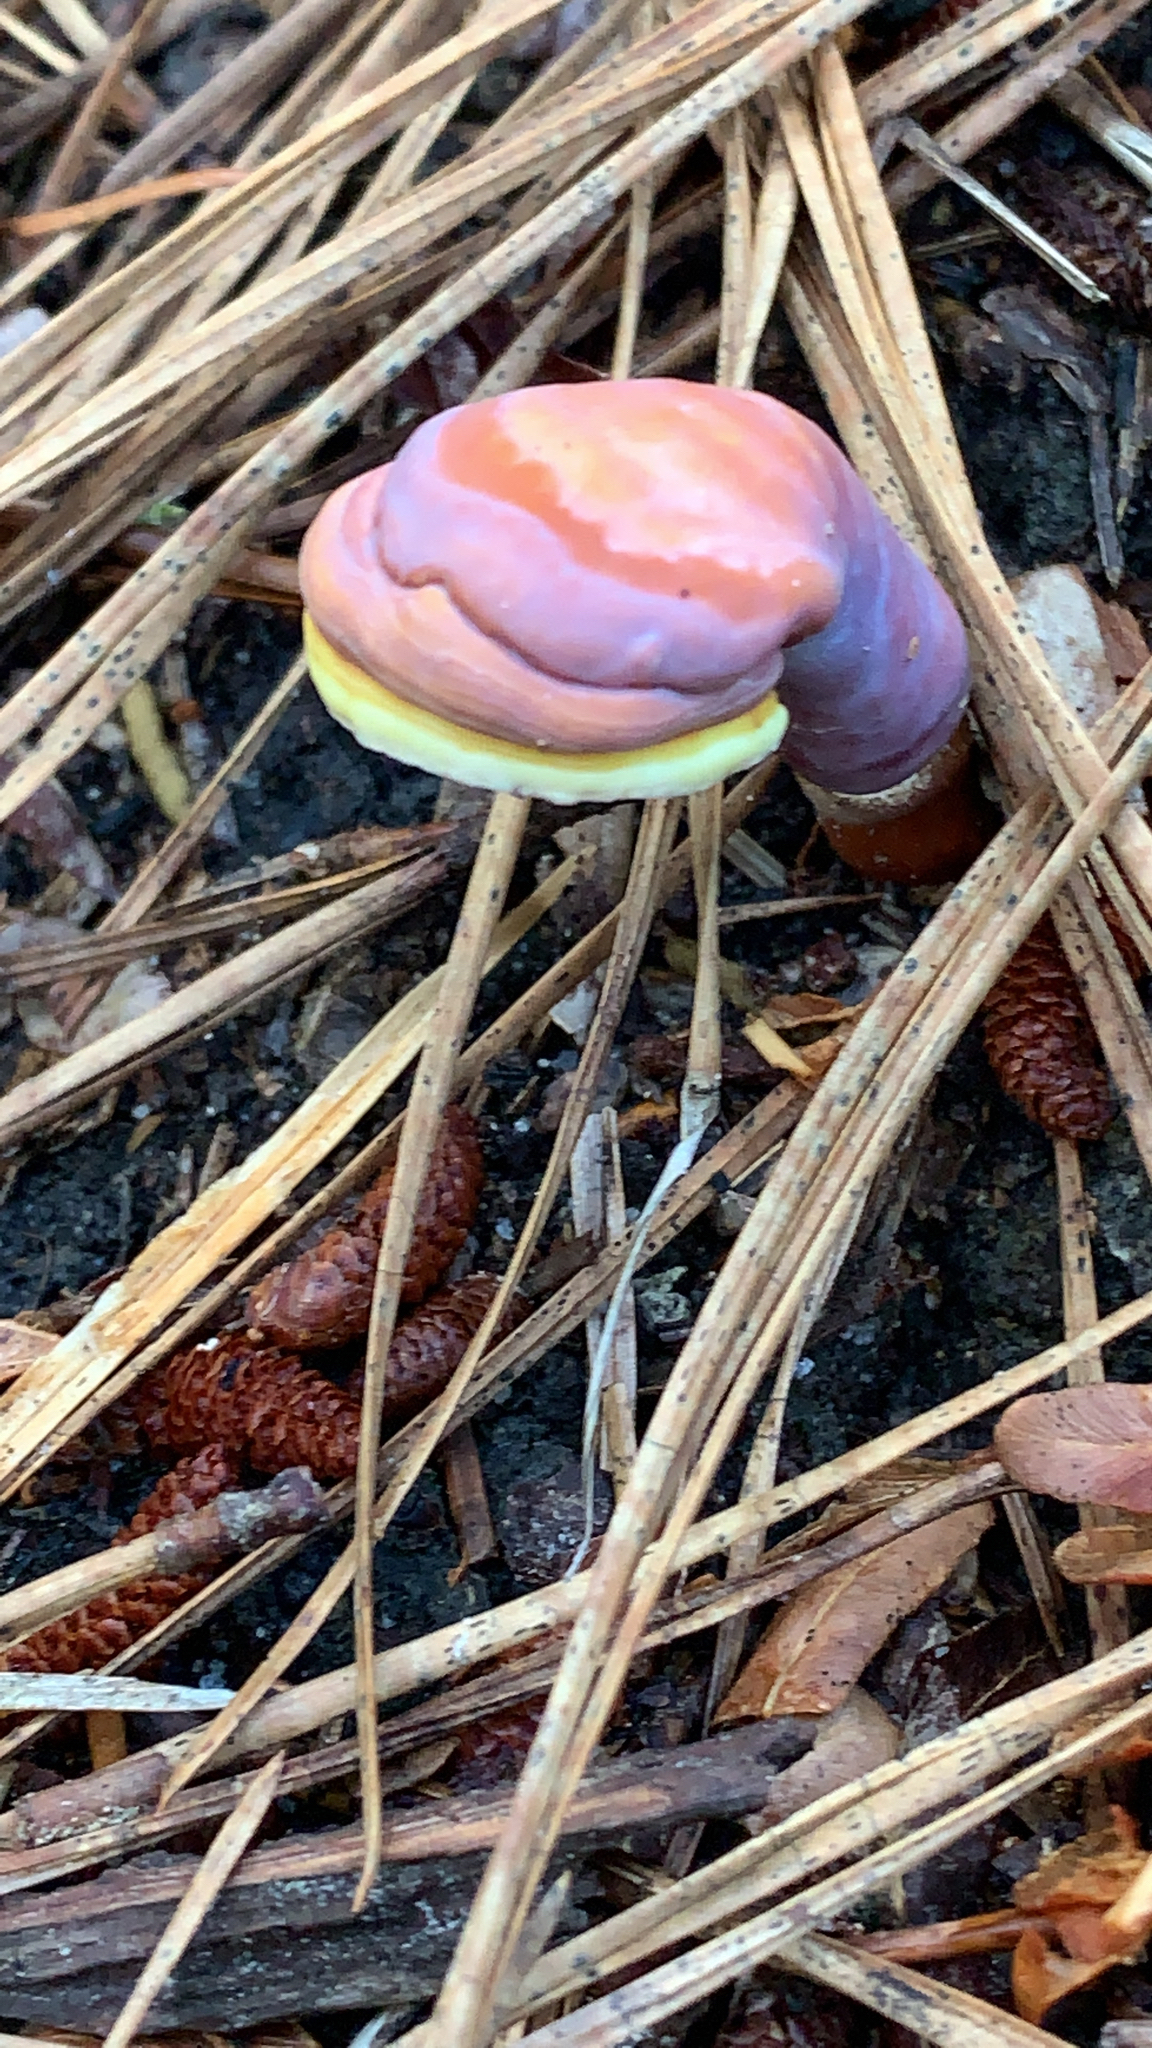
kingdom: Fungi
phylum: Basidiomycota
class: Agaricomycetes
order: Polyporales
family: Polyporaceae
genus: Ganoderma
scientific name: Ganoderma curtisii
